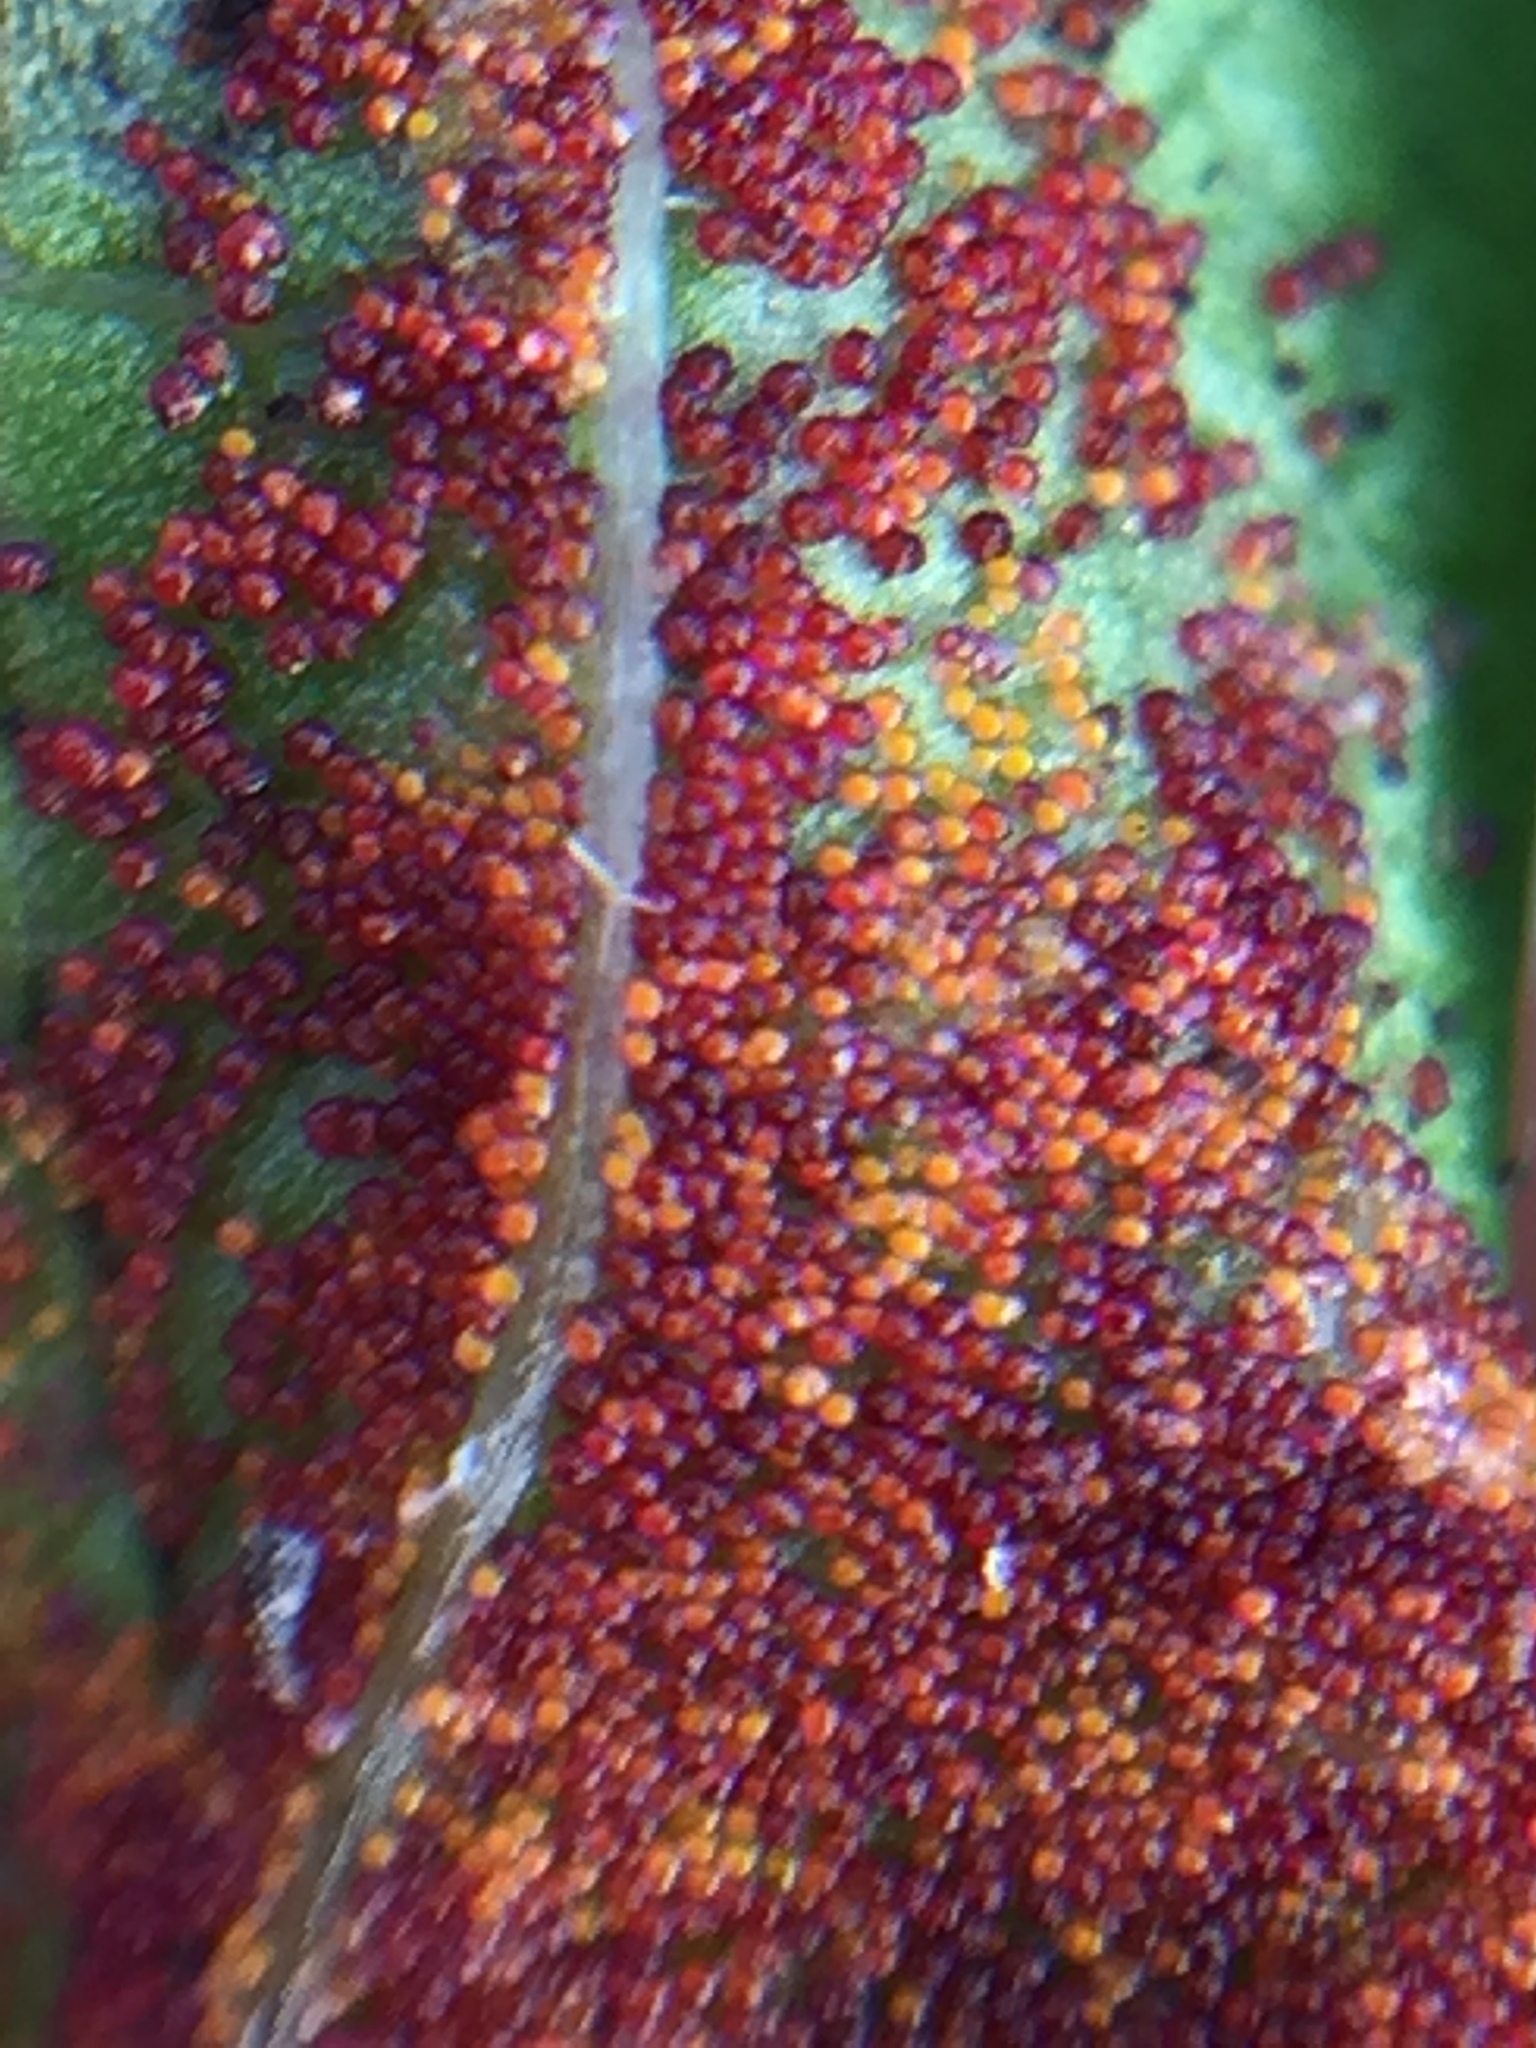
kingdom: Fungi
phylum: Chytridiomycota
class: Chytridiomycetes
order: Chytridiales
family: Synchytriaceae
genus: Synchytrium
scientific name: Synchytrium australe
